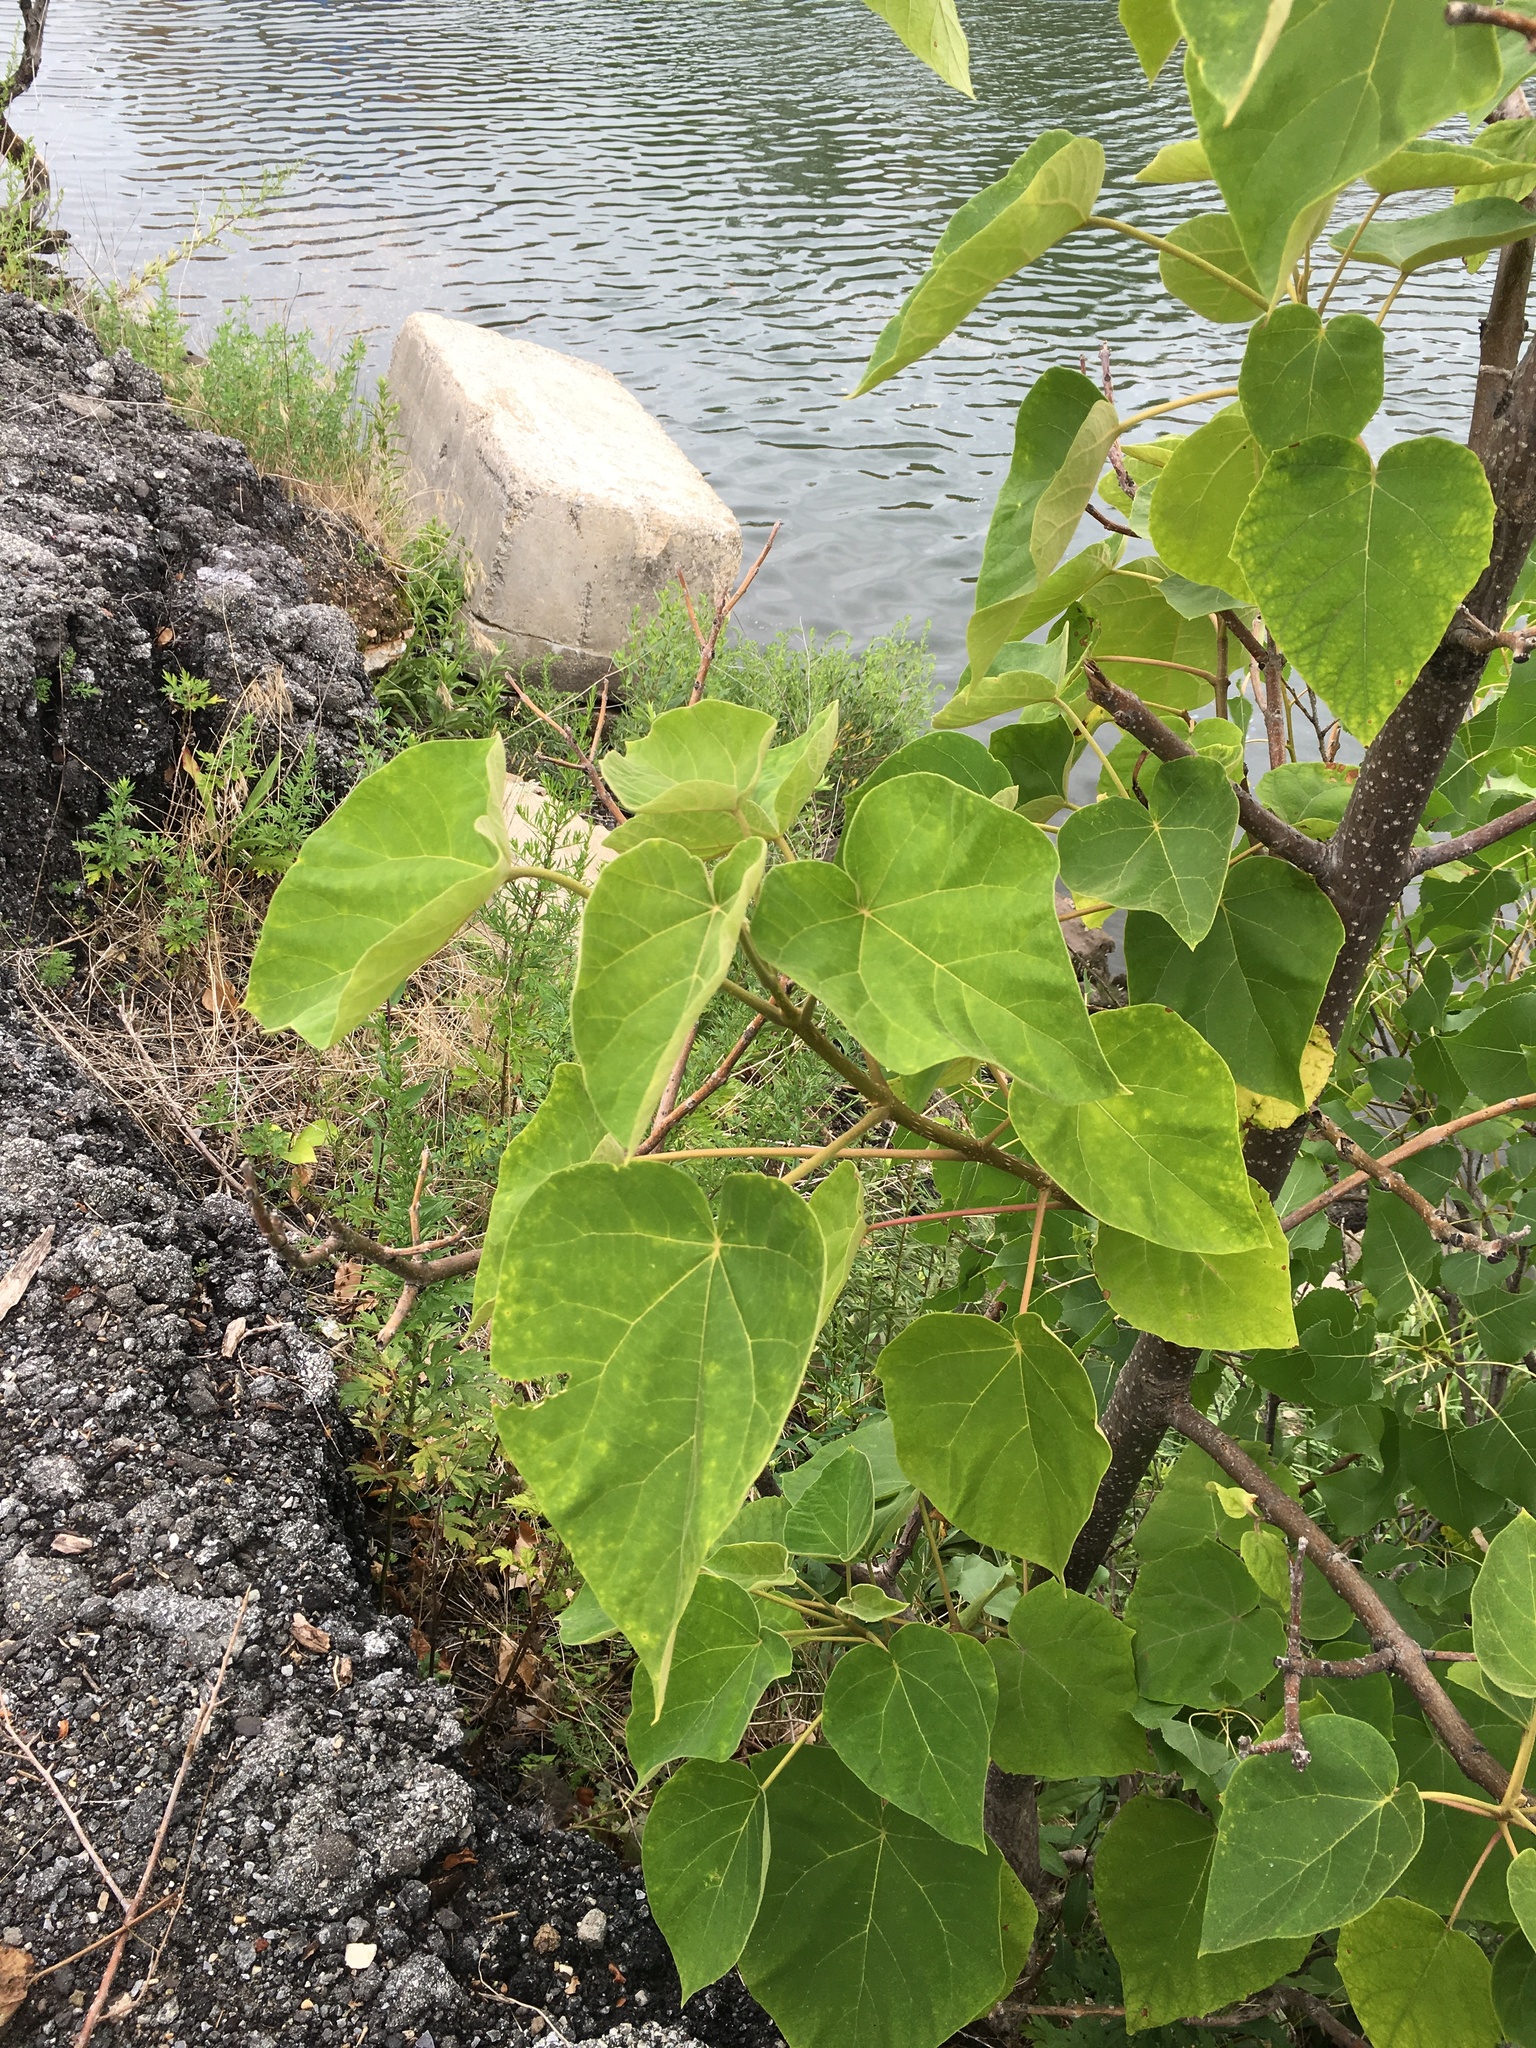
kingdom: Plantae
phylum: Tracheophyta
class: Magnoliopsida
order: Lamiales
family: Paulowniaceae
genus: Paulownia
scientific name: Paulownia tomentosa
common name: Foxglove-tree
